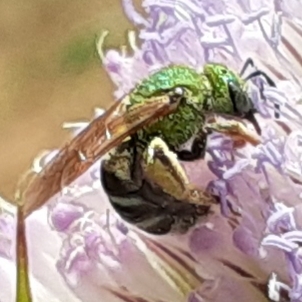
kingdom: Animalia
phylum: Arthropoda
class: Insecta
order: Hymenoptera
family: Halictidae
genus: Agapostemon
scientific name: Agapostemon virescens
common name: Bicolored striped sweat bee
